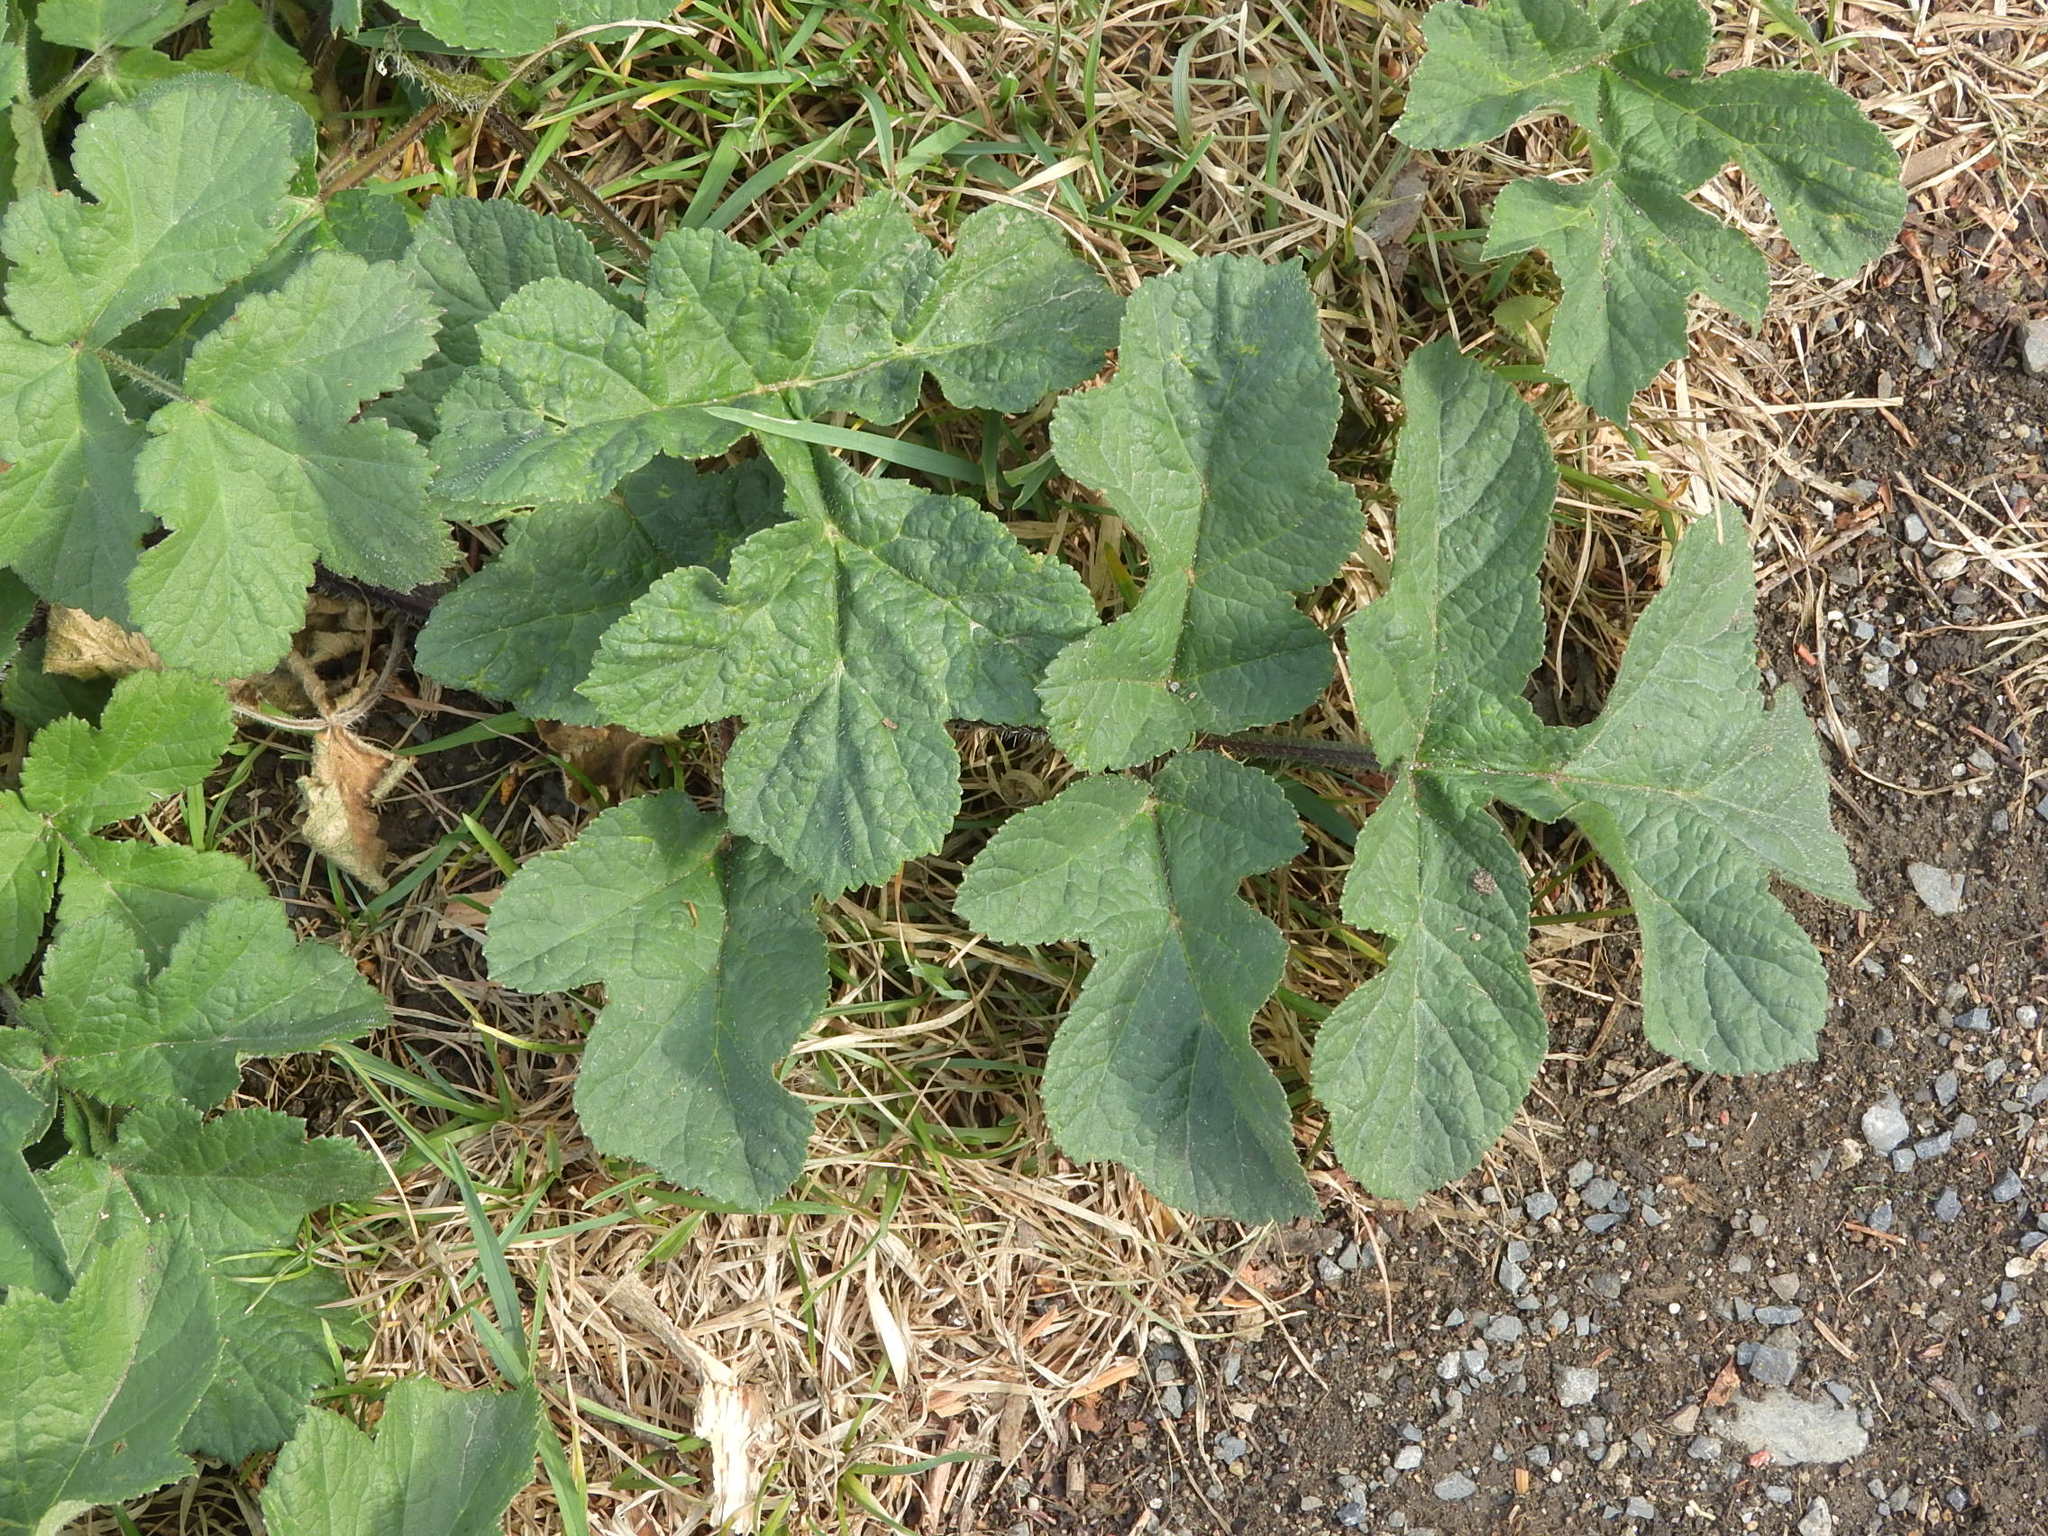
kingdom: Plantae
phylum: Tracheophyta
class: Magnoliopsida
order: Apiales
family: Apiaceae
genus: Heracleum
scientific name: Heracleum sphondylium
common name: Hogweed
